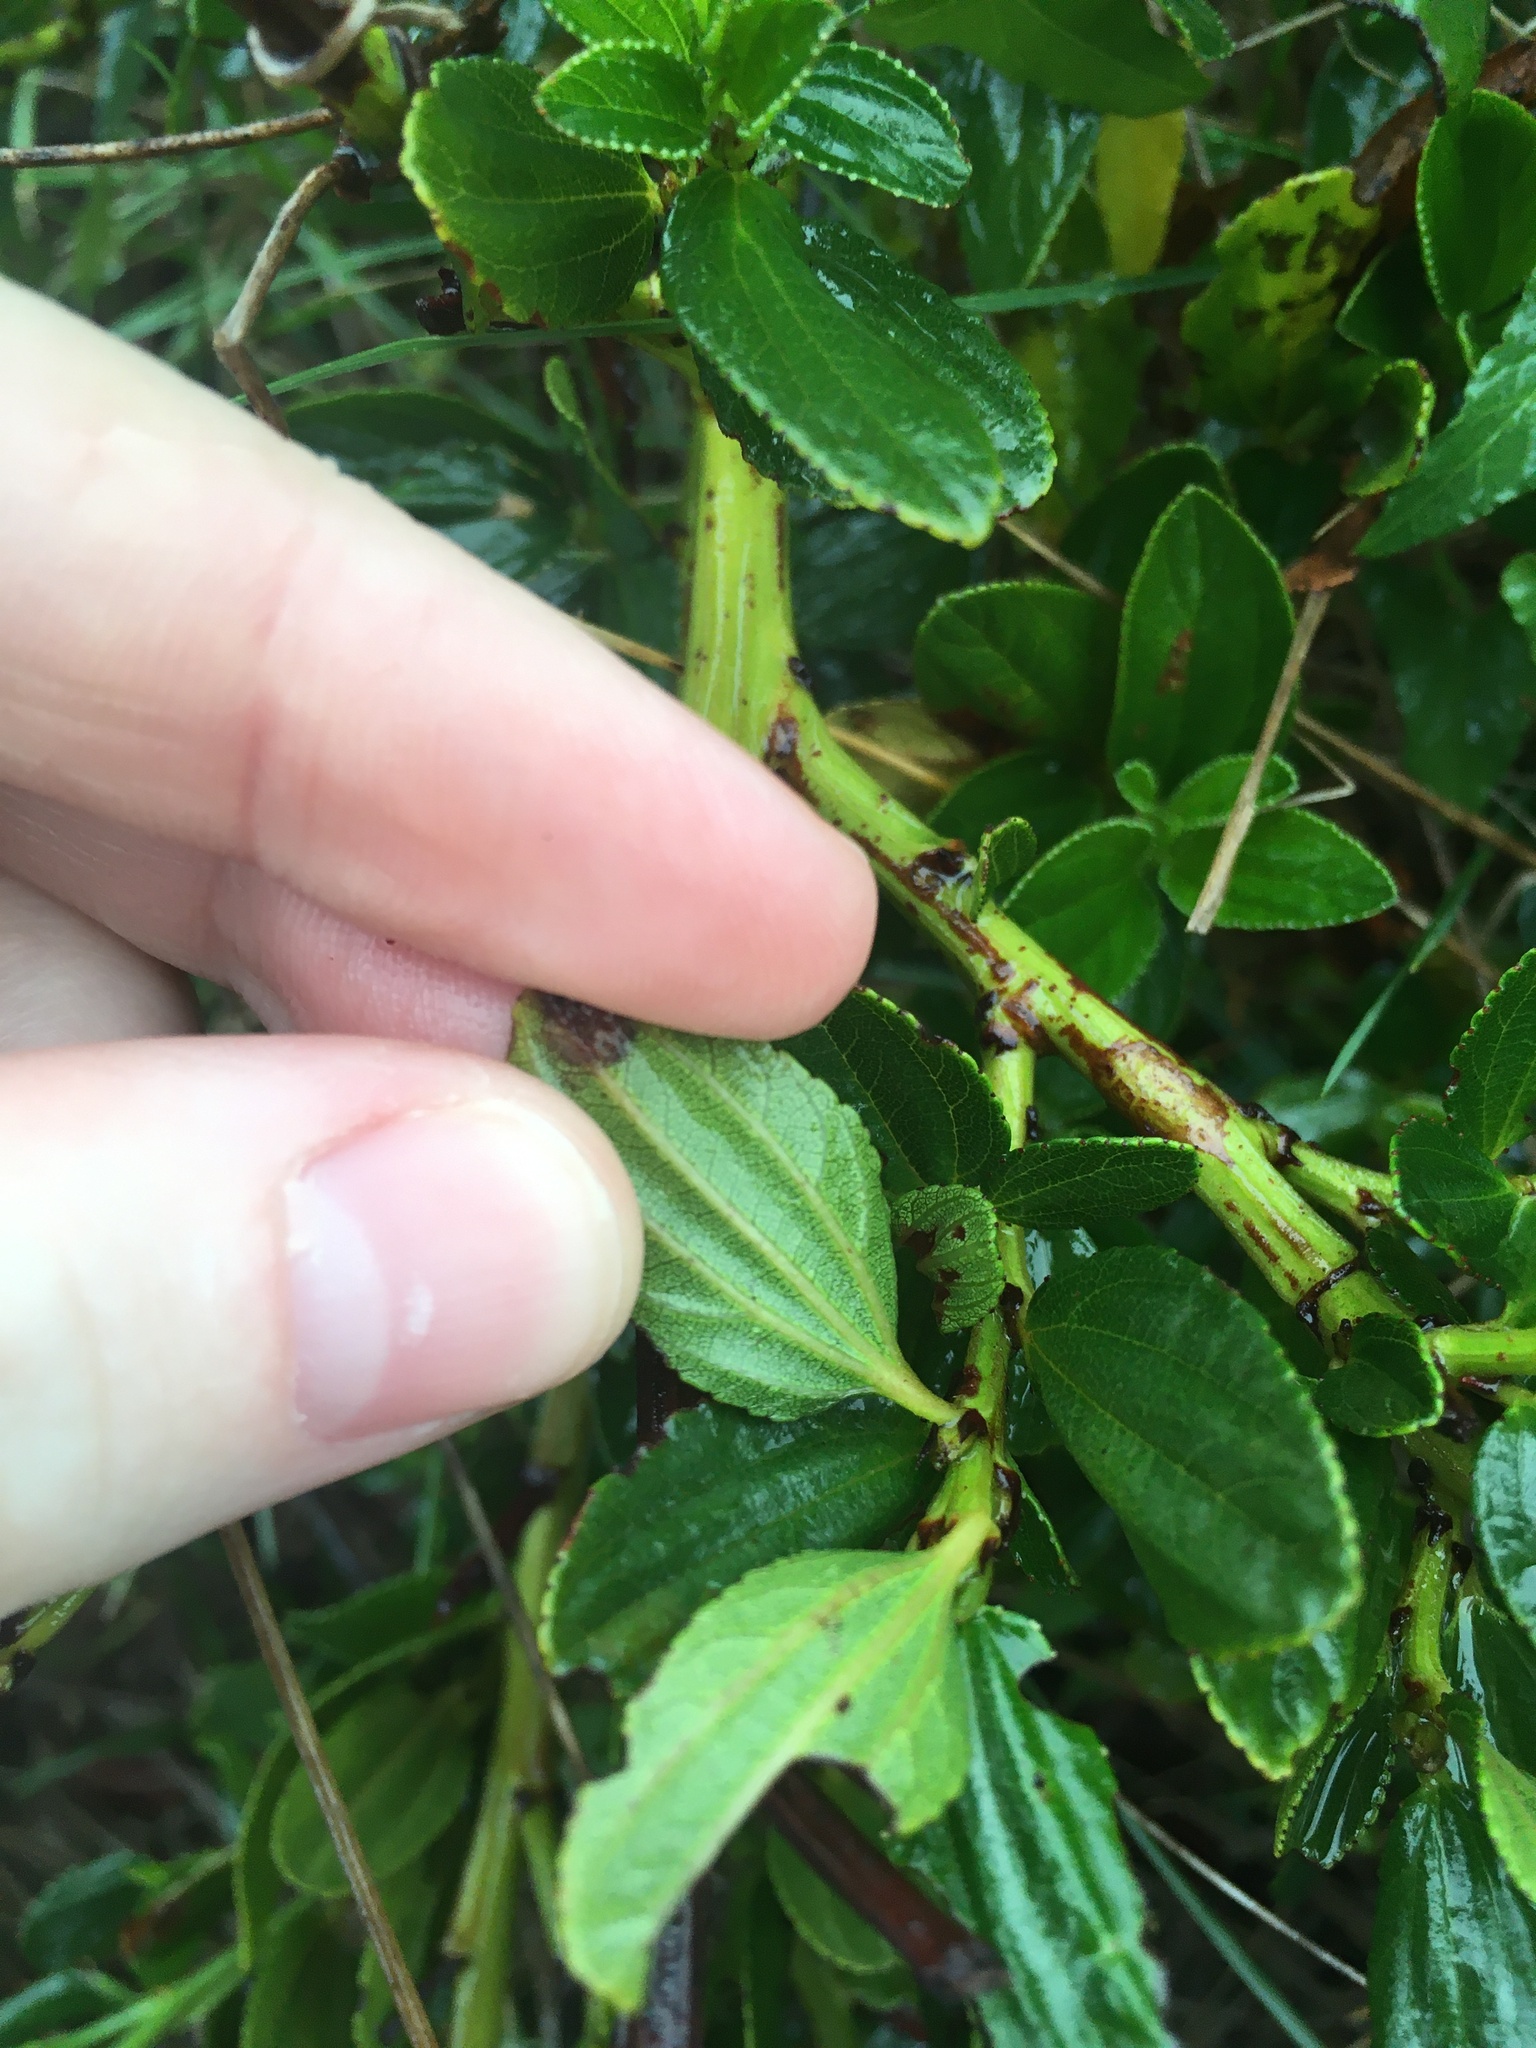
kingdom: Plantae
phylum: Tracheophyta
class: Magnoliopsida
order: Rosales
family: Rhamnaceae
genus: Ceanothus
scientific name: Ceanothus thyrsiflorus
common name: California-lilac
